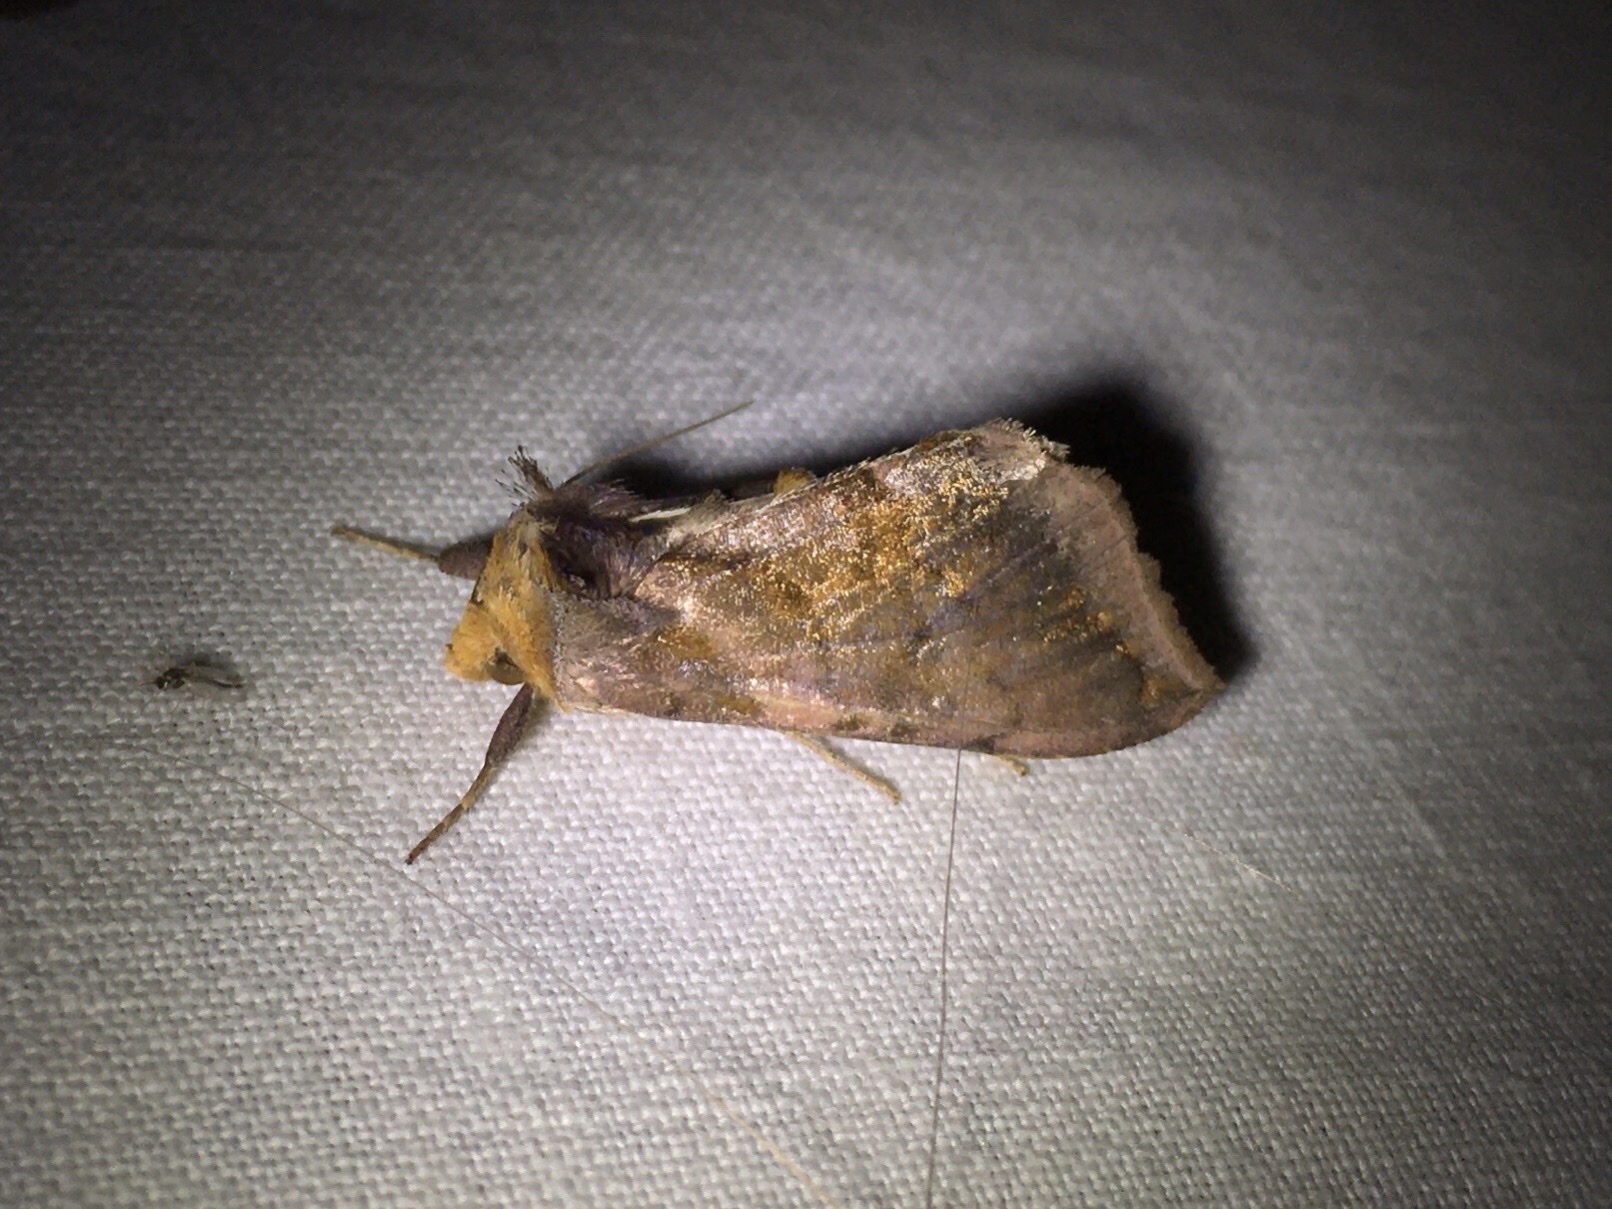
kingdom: Animalia
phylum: Arthropoda
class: Insecta
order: Lepidoptera
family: Noctuidae
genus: Allagrapha
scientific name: Allagrapha aerea
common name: Unspotted looper moth
